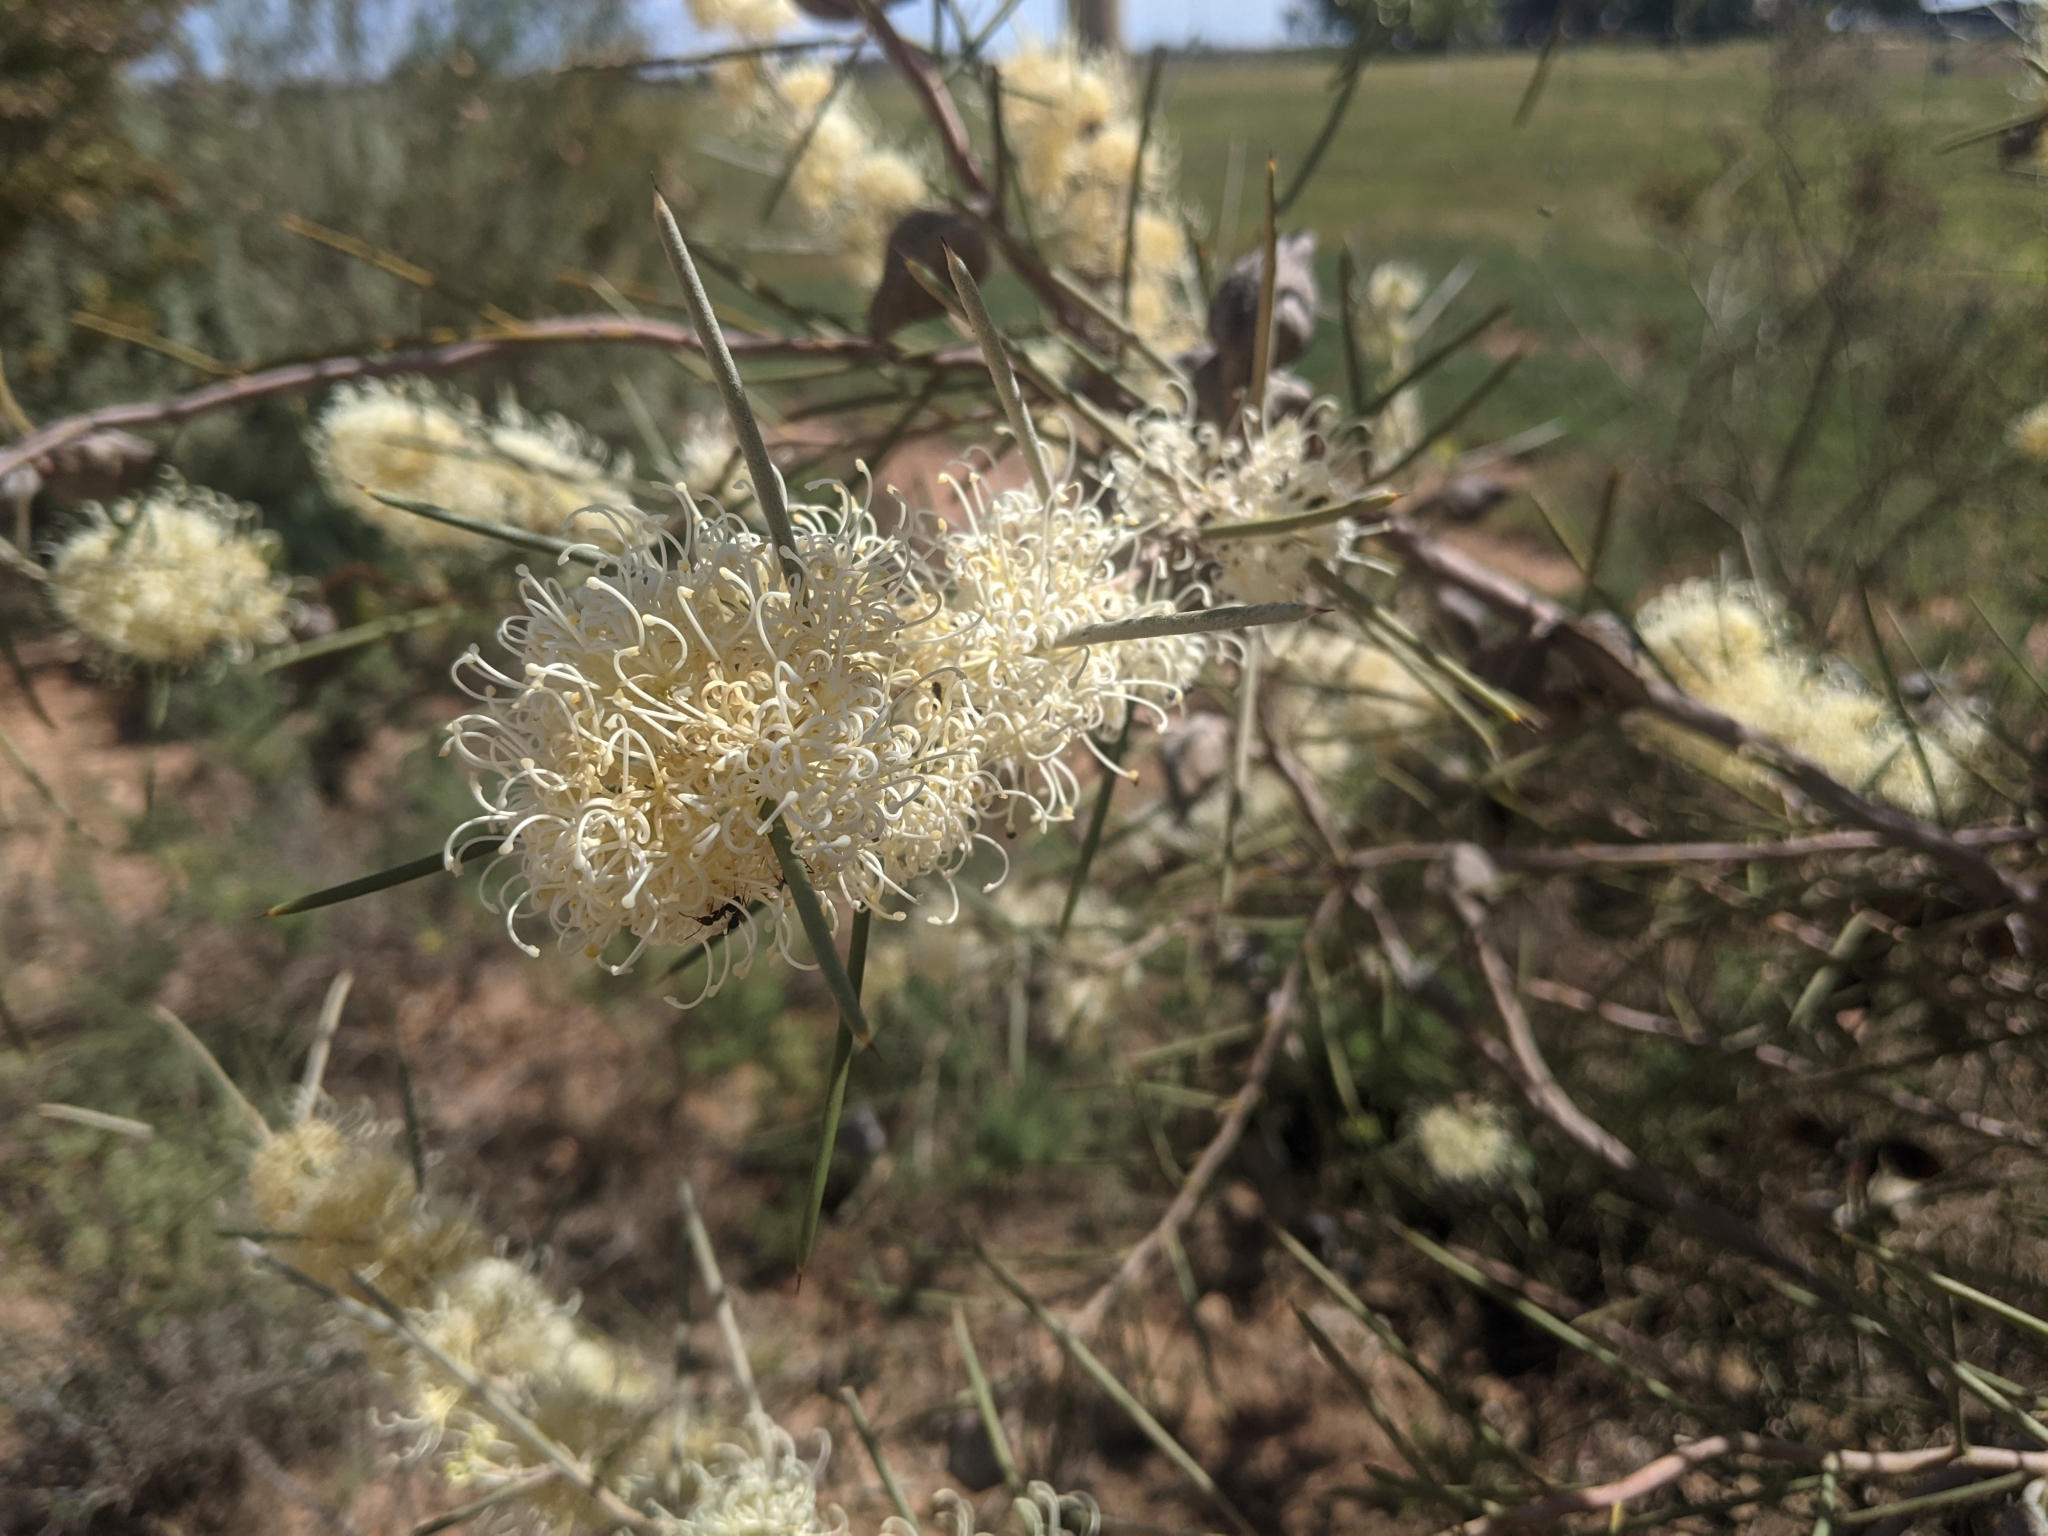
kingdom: Plantae
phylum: Tracheophyta
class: Magnoliopsida
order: Proteales
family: Proteaceae
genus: Hakea
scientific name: Hakea leucoptera
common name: Pinbush
